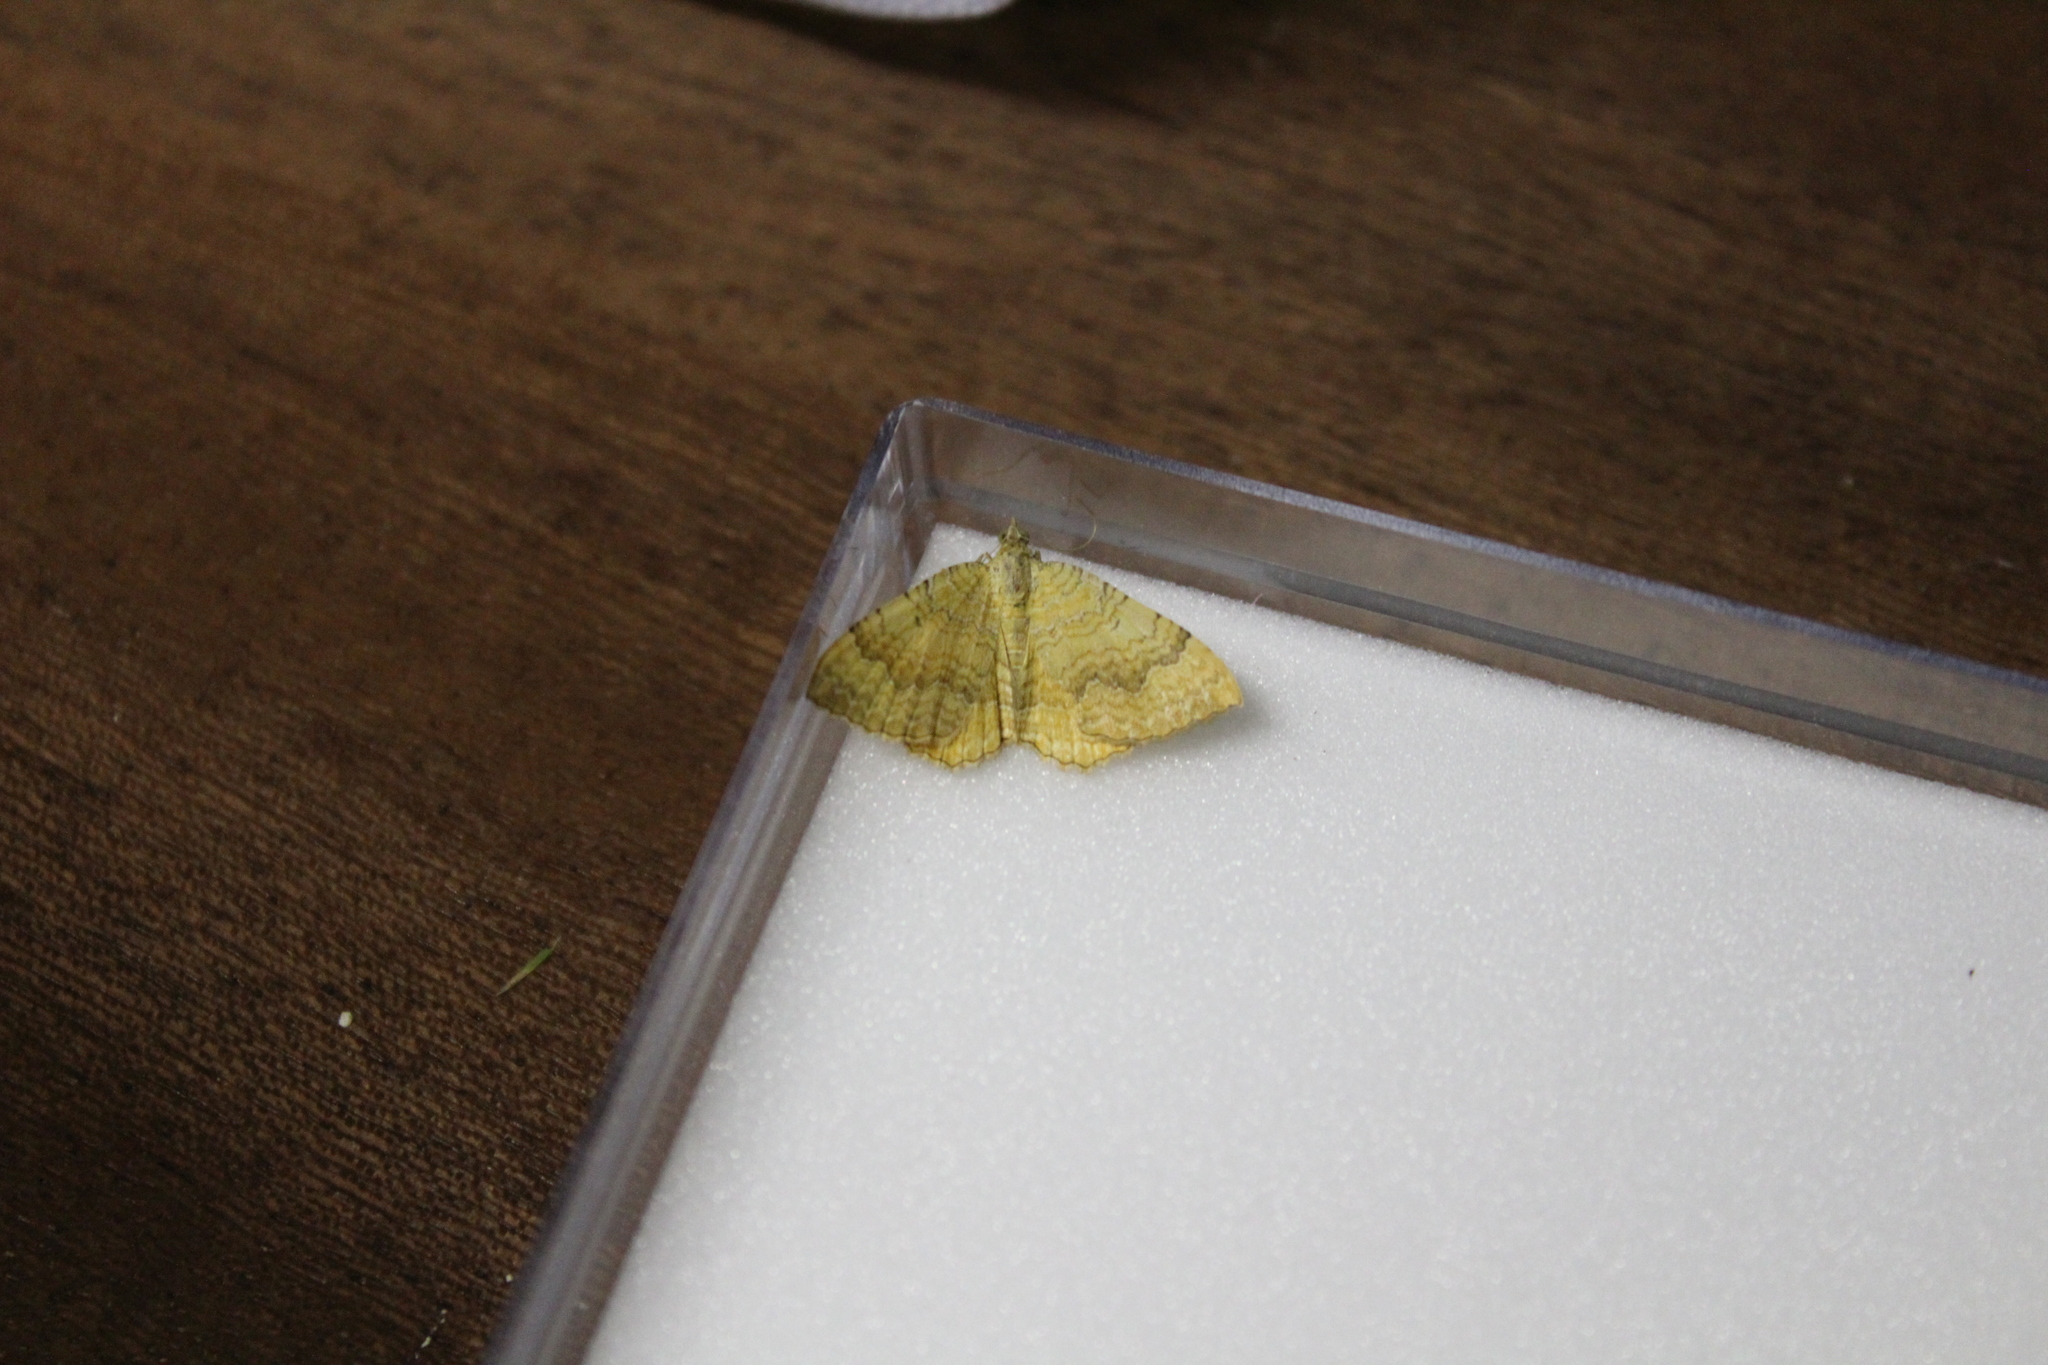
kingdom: Animalia
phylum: Arthropoda
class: Insecta
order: Lepidoptera
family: Geometridae
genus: Camptogramma
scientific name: Camptogramma bilineata
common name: Yellow shell
